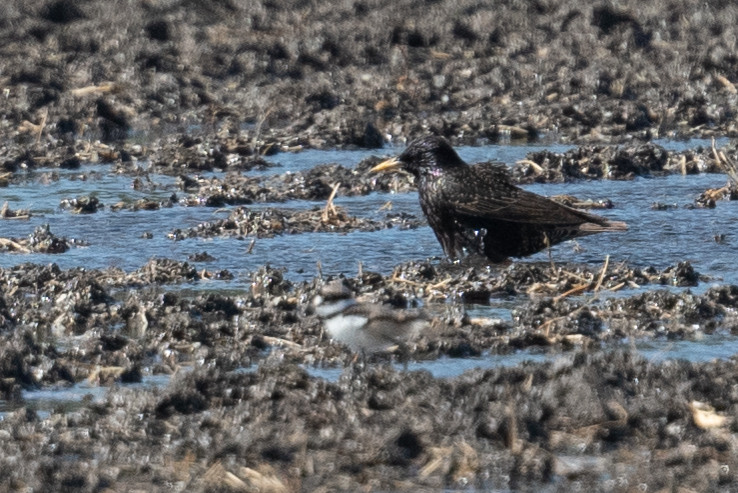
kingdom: Animalia
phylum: Chordata
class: Aves
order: Passeriformes
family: Sturnidae
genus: Sturnus
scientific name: Sturnus vulgaris
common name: Common starling
